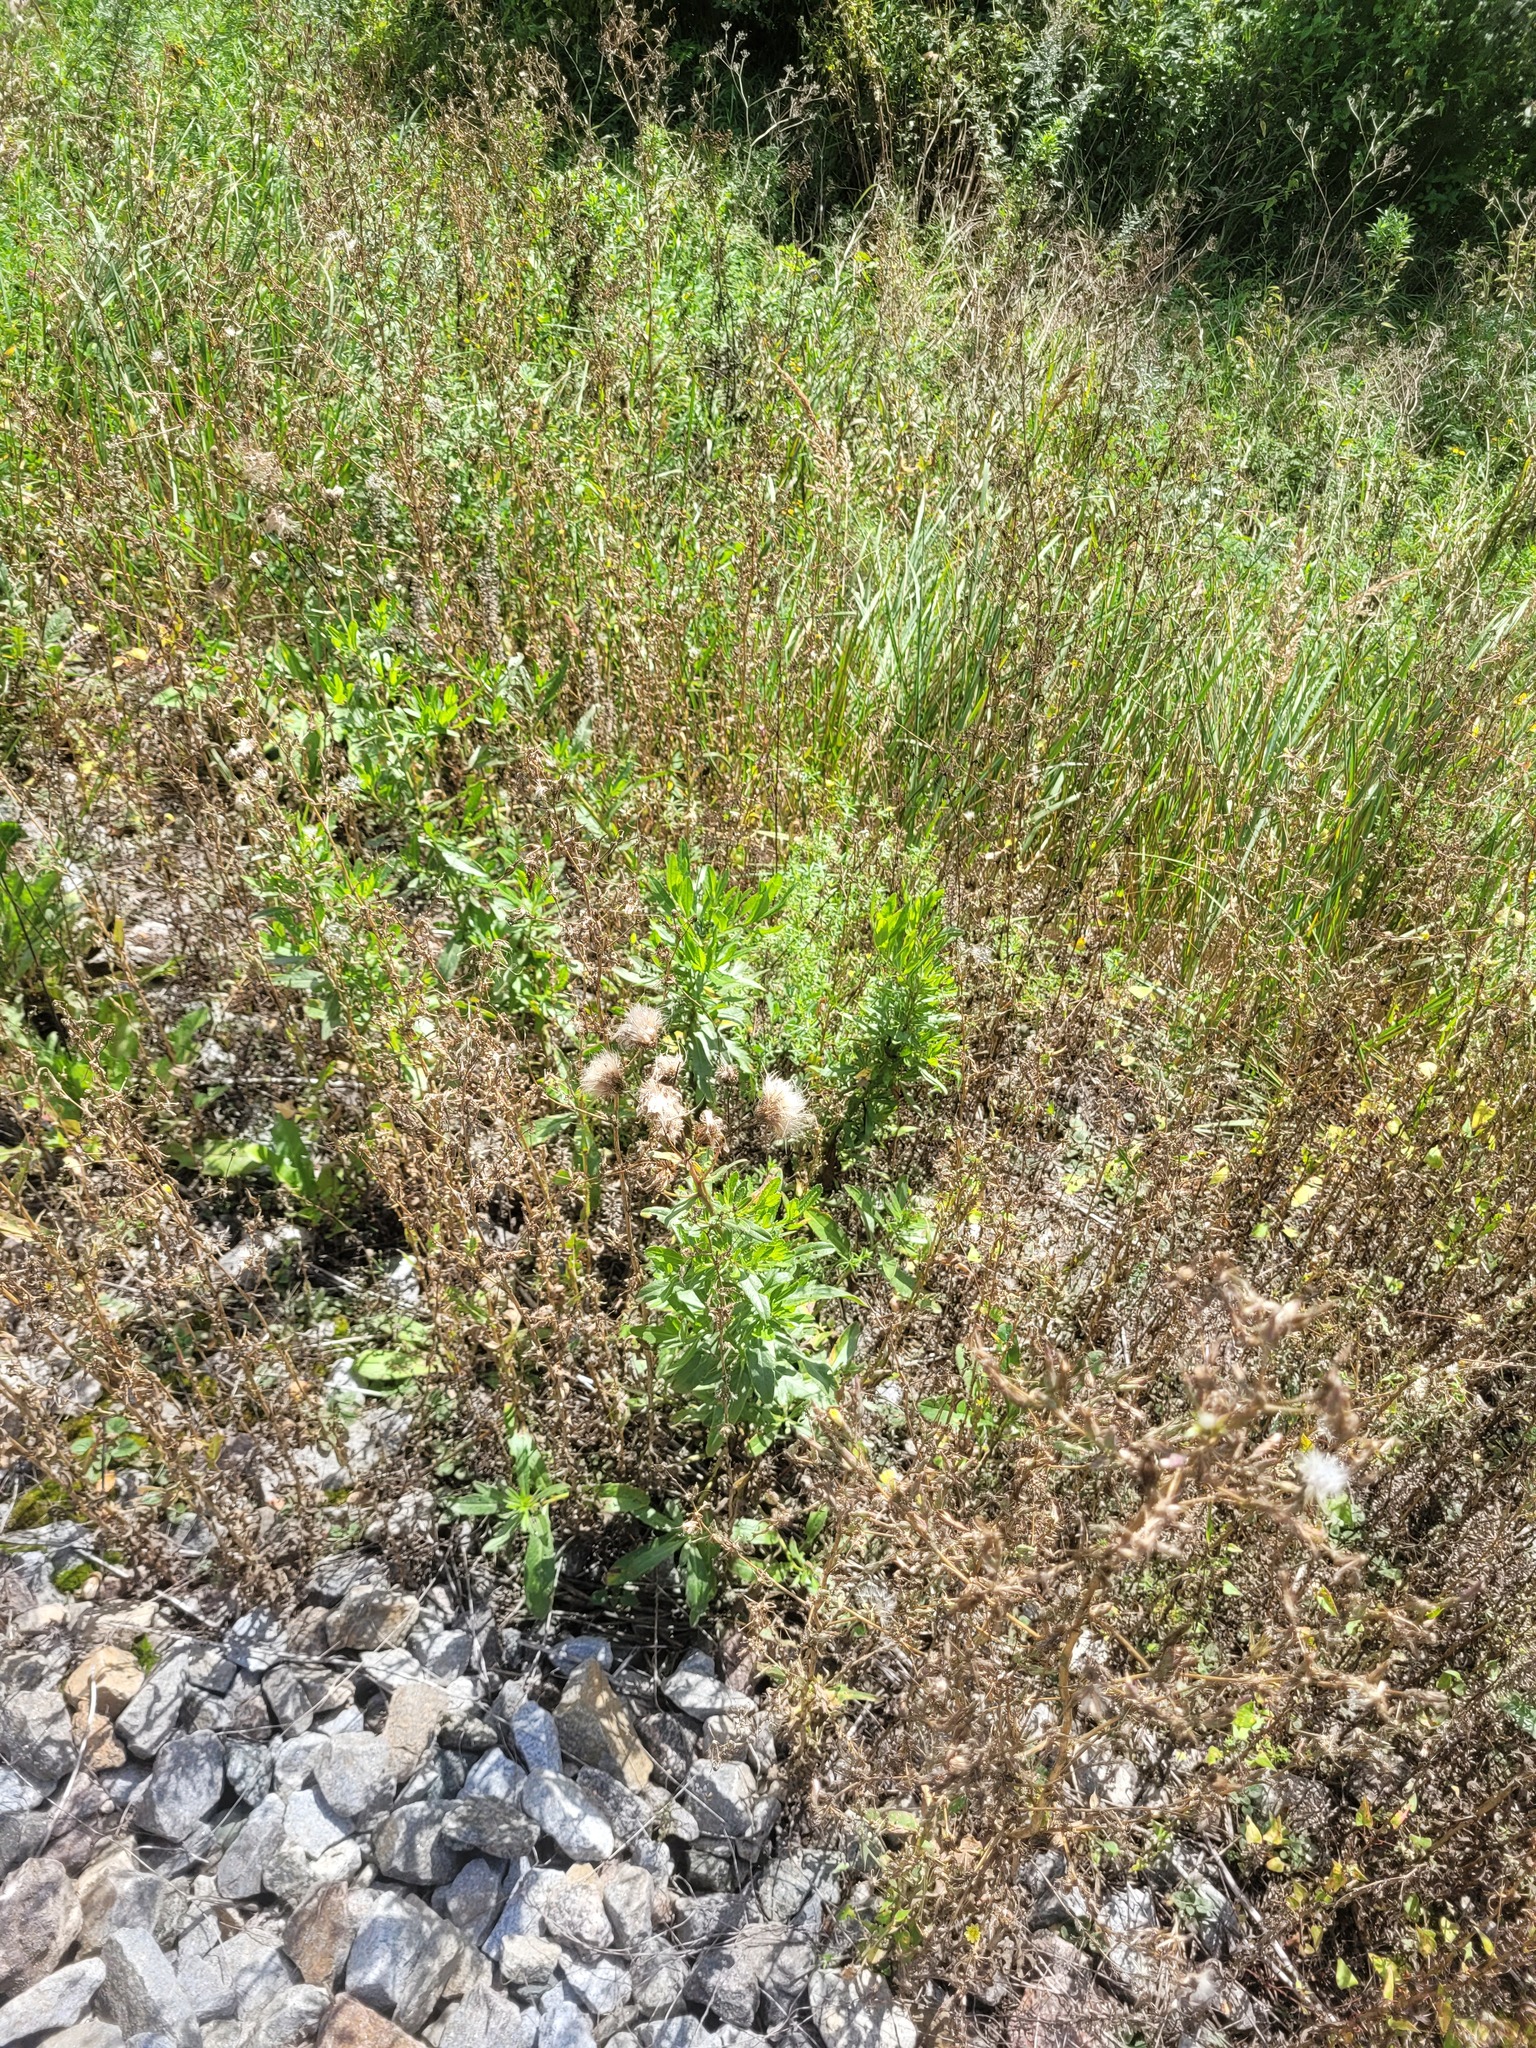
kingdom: Plantae
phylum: Tracheophyta
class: Magnoliopsida
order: Asterales
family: Asteraceae
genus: Cirsium
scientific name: Cirsium arvense
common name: Creeping thistle
